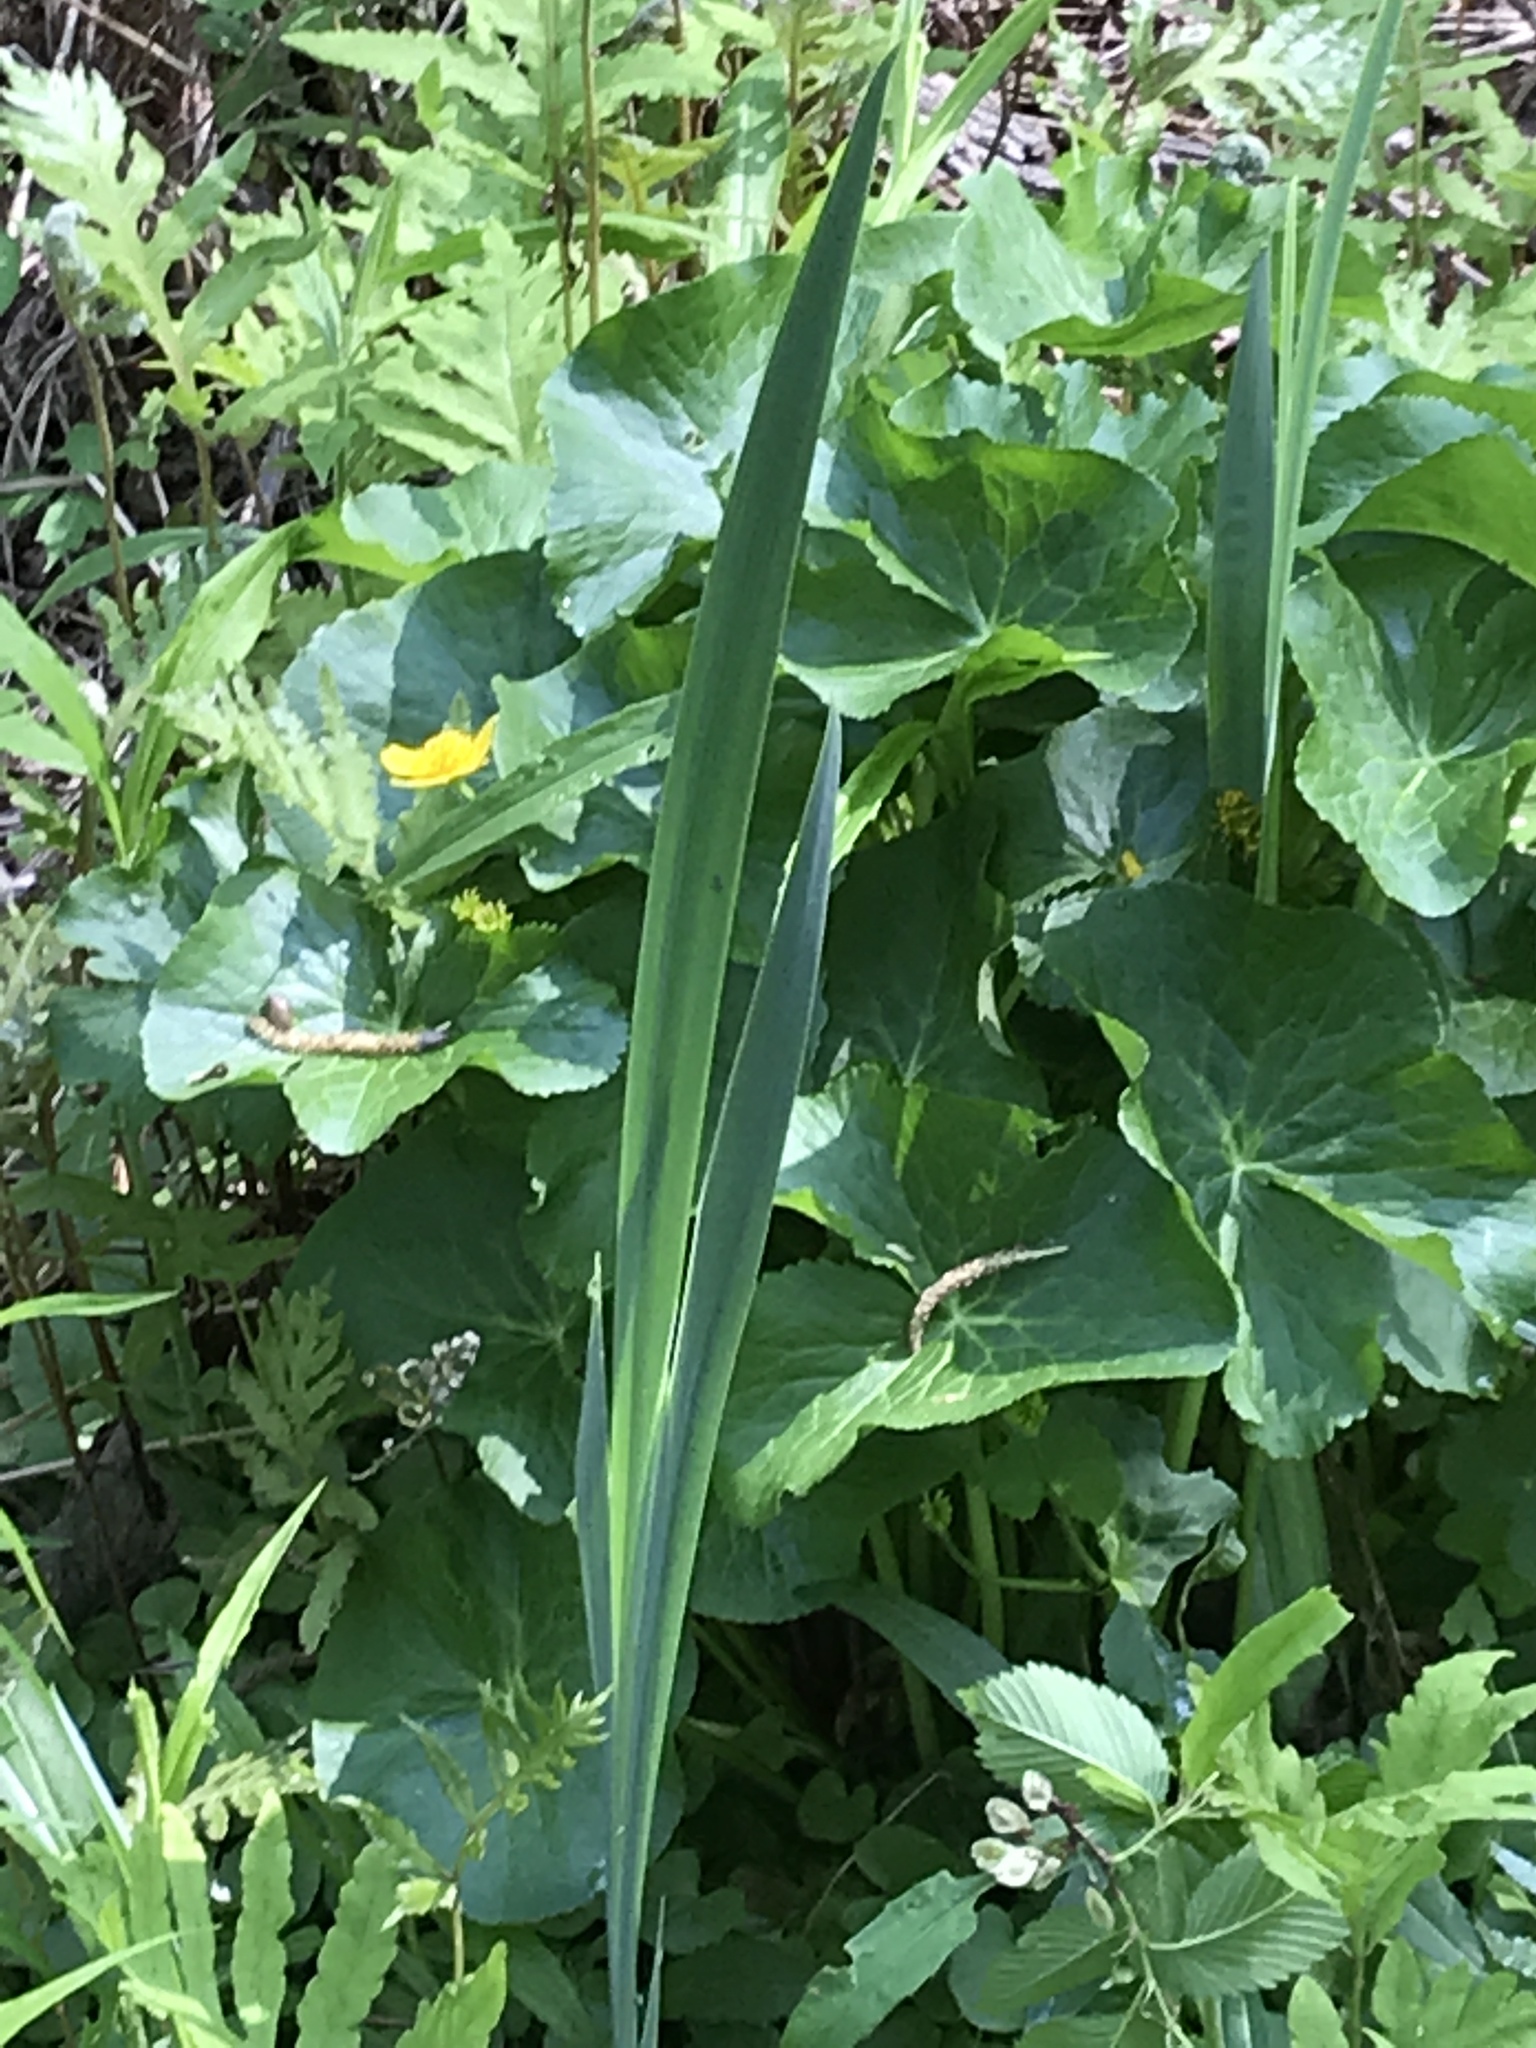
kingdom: Plantae
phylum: Tracheophyta
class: Magnoliopsida
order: Ranunculales
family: Ranunculaceae
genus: Caltha
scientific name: Caltha palustris
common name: Marsh marigold
